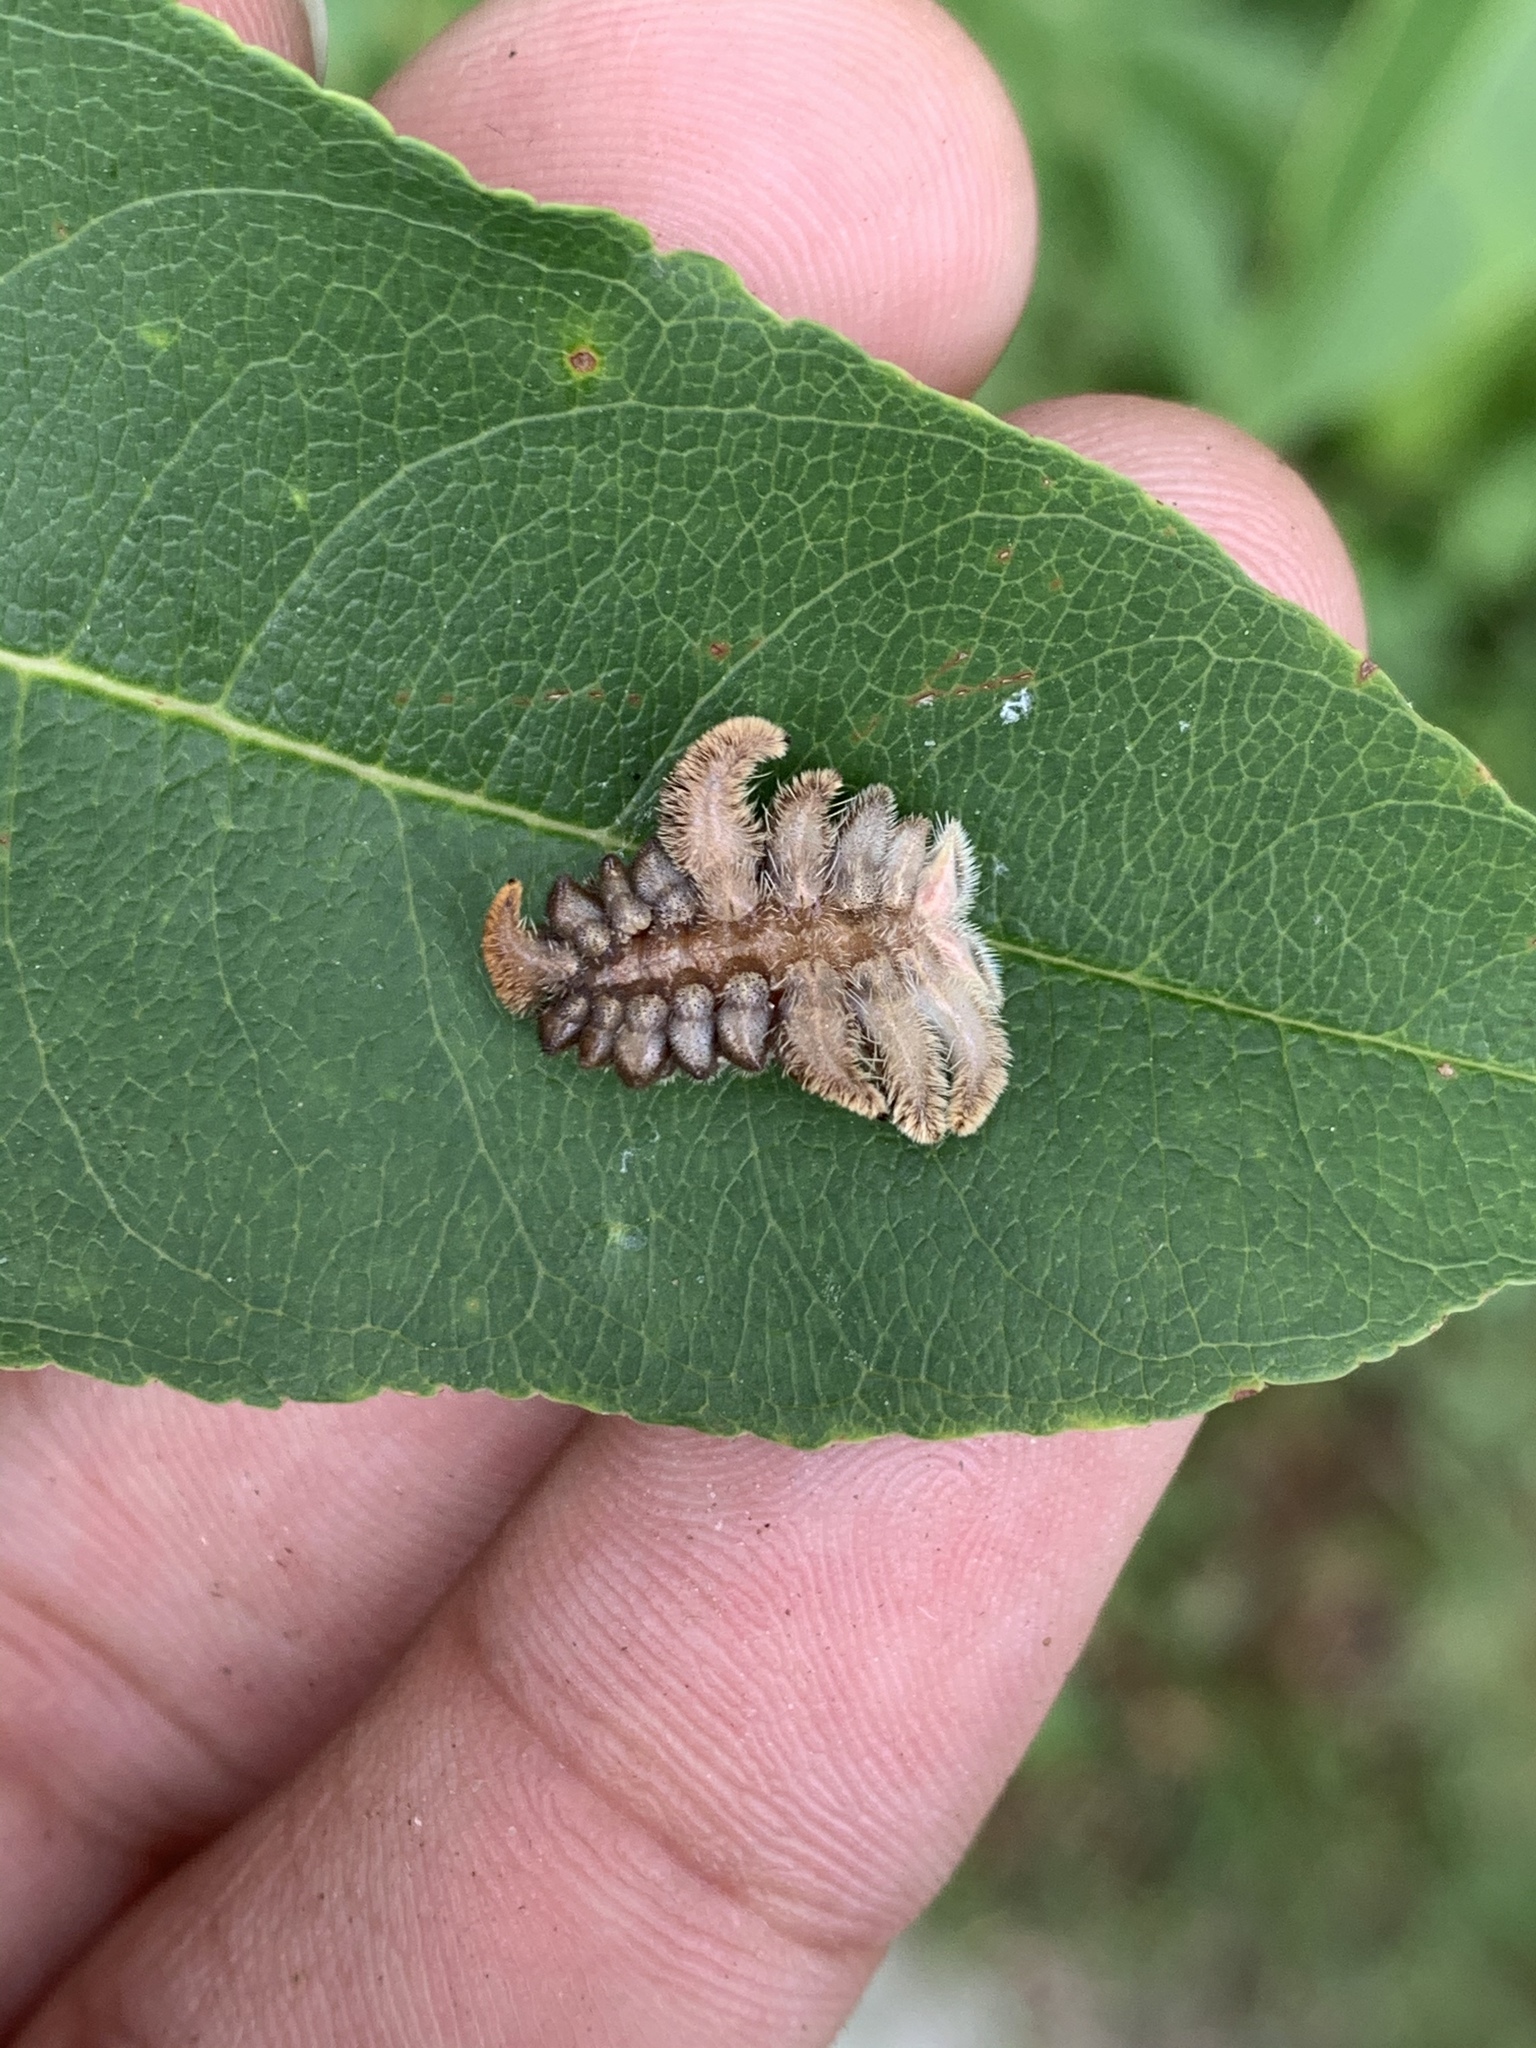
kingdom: Animalia
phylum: Arthropoda
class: Insecta
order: Lepidoptera
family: Limacodidae
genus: Phobetron
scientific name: Phobetron pithecium
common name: Hag moth
